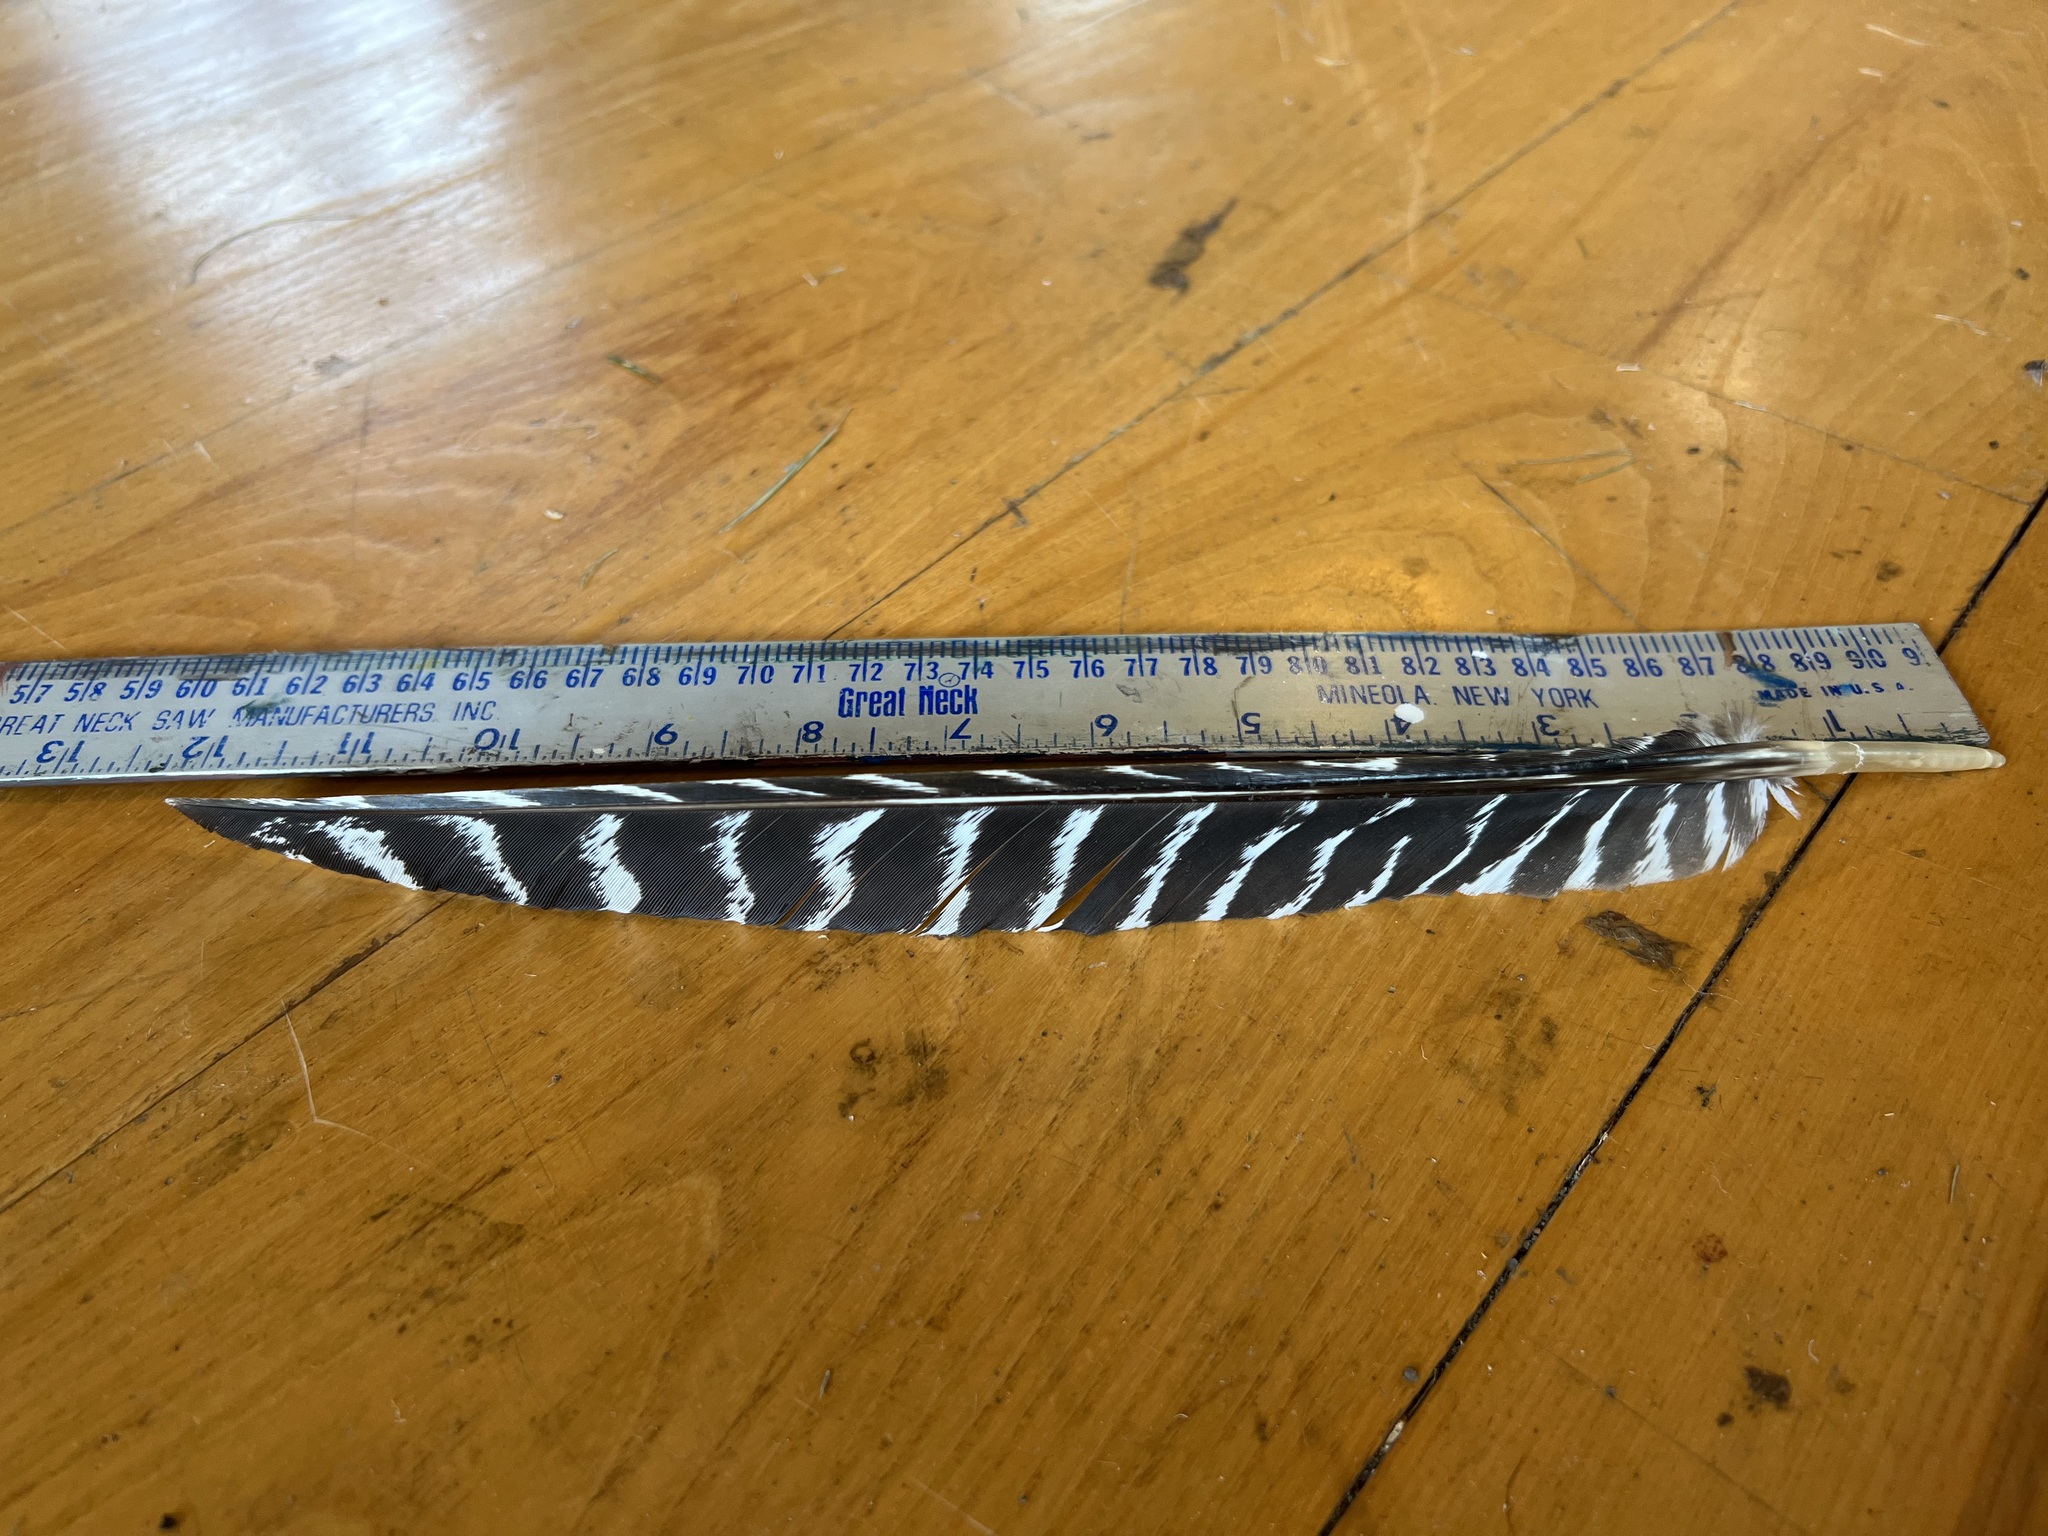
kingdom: Animalia
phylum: Chordata
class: Aves
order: Galliformes
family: Phasianidae
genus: Meleagris
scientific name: Meleagris gallopavo
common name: Wild turkey
